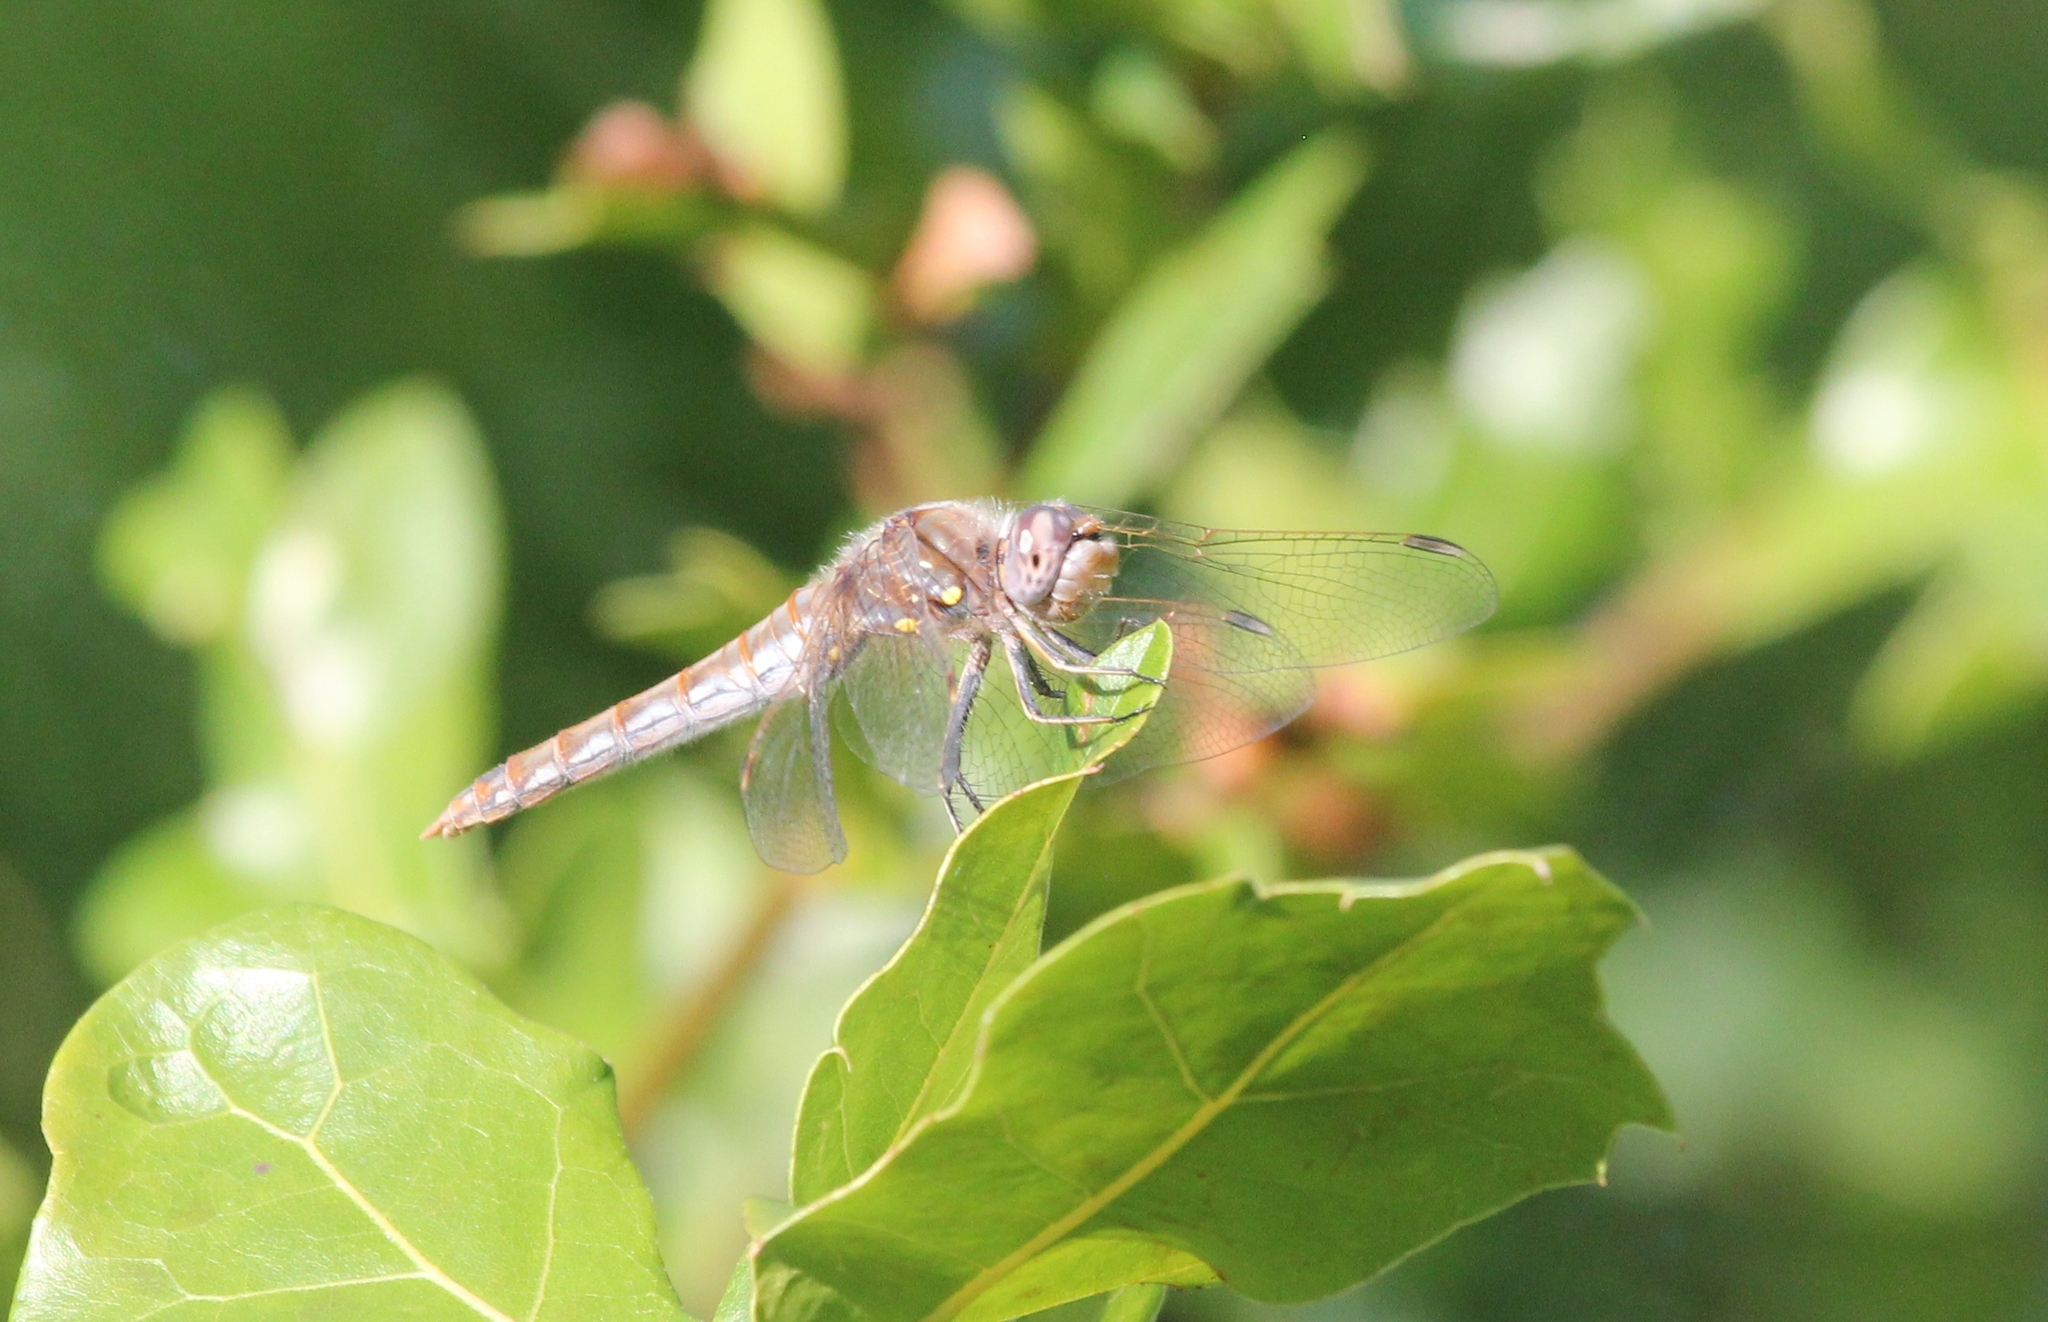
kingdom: Animalia
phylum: Arthropoda
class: Insecta
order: Odonata
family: Libellulidae
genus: Sympetrum
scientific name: Sympetrum corruptum
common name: Variegated meadowhawk
